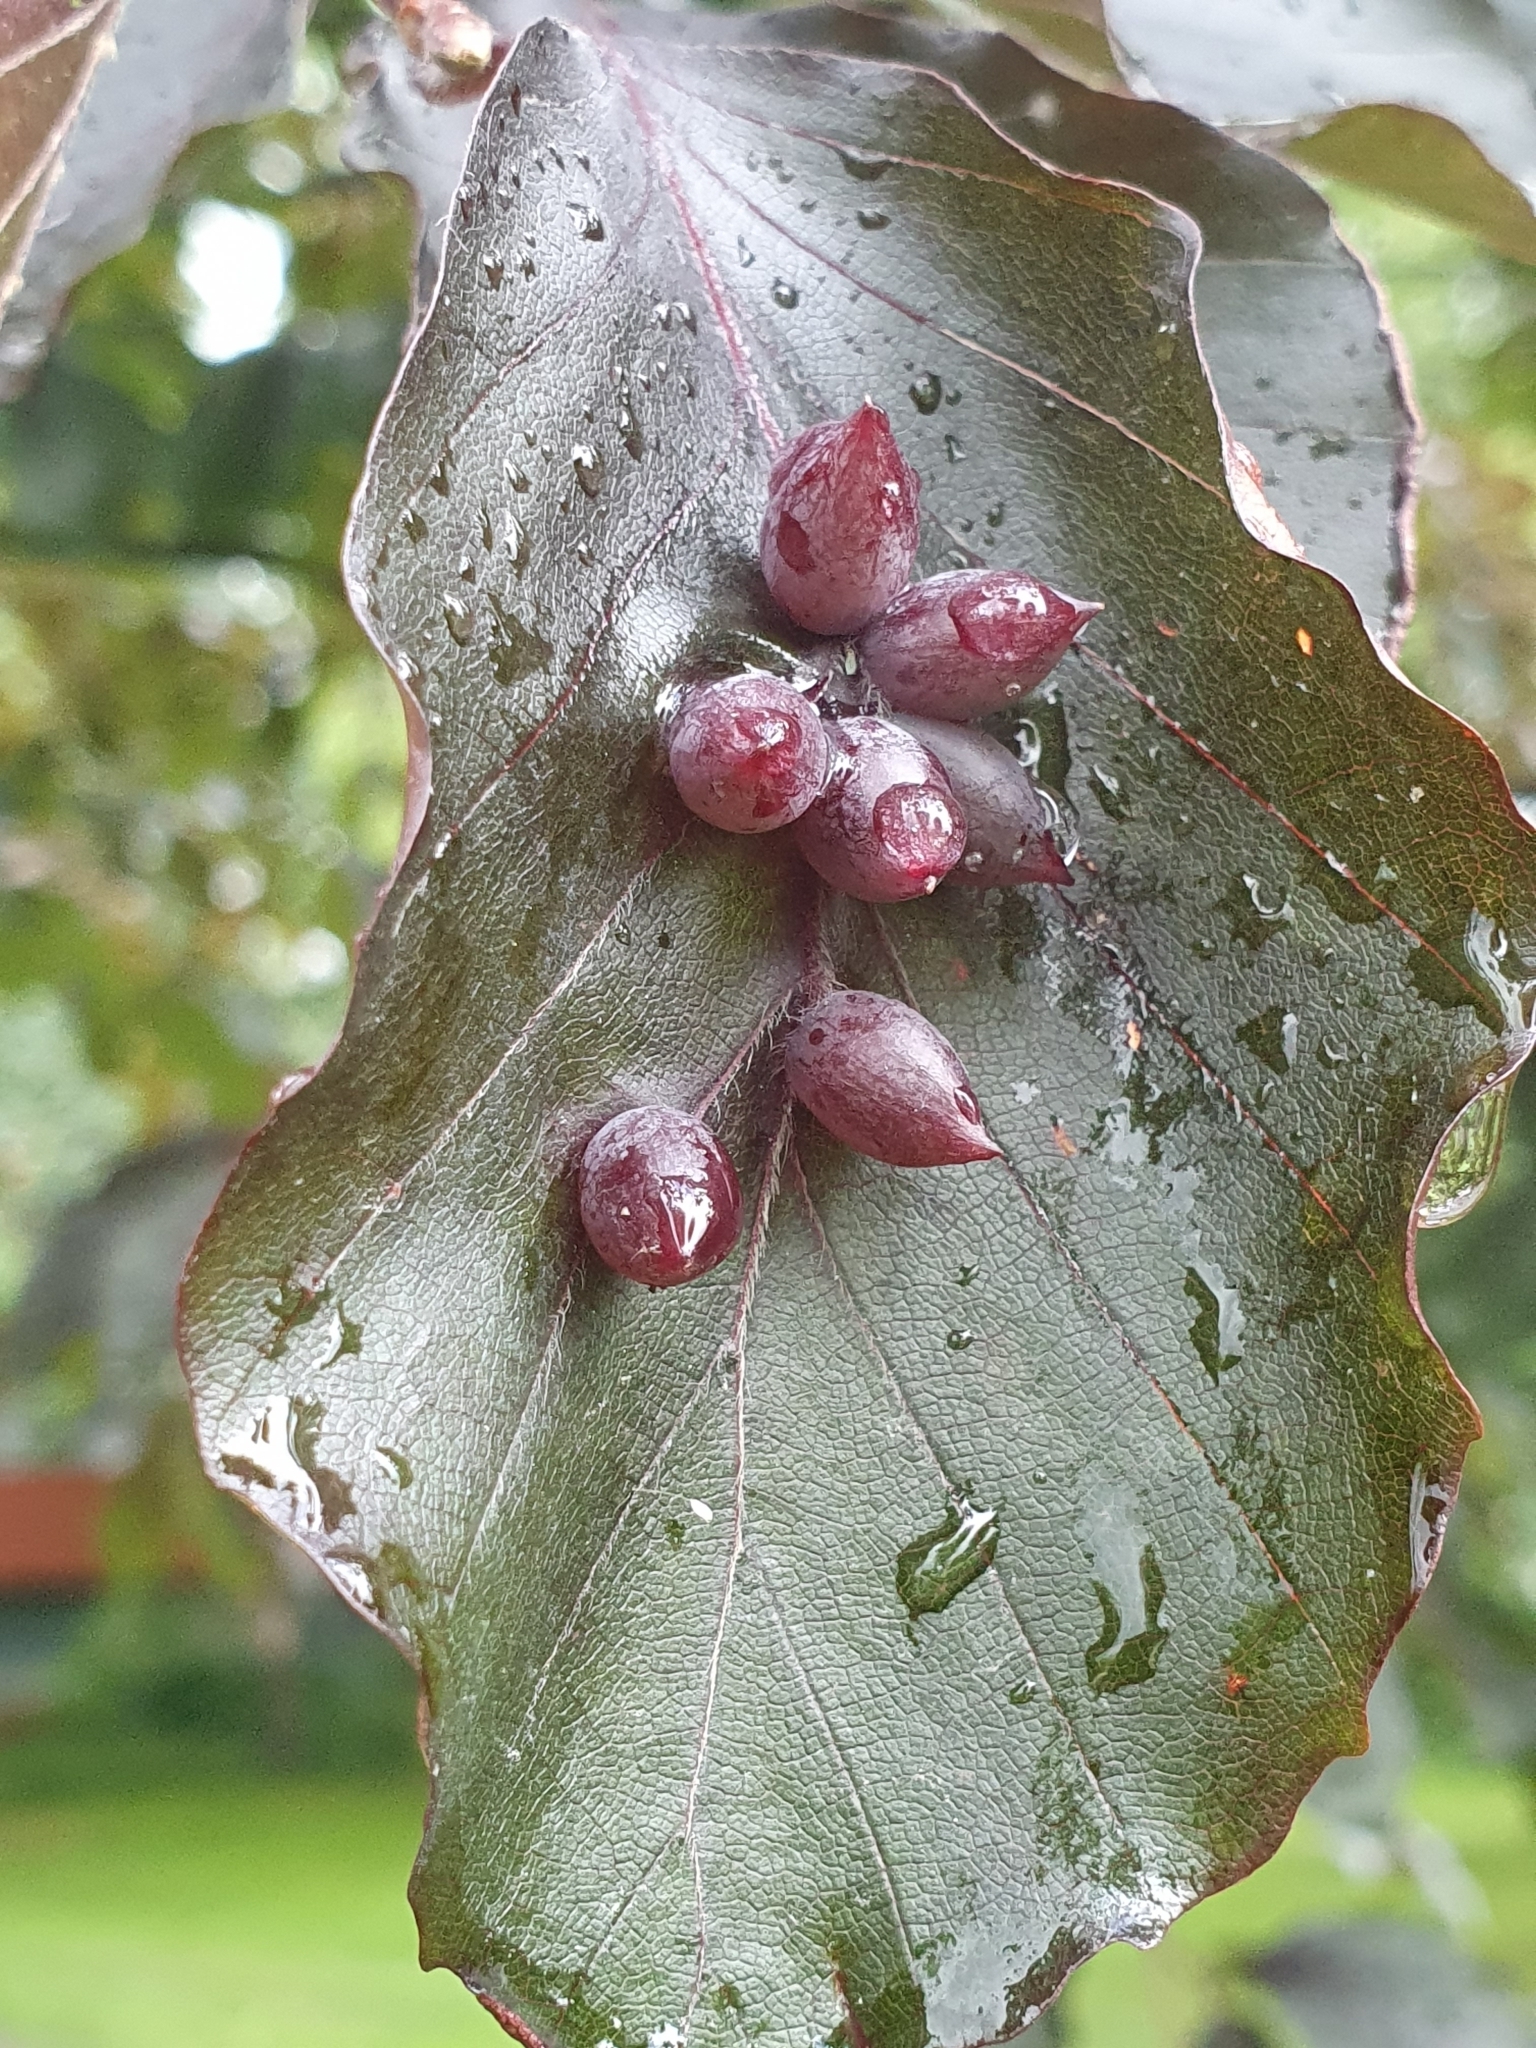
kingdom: Animalia
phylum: Arthropoda
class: Insecta
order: Diptera
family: Cecidomyiidae
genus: Mikiola
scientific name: Mikiola fagi
